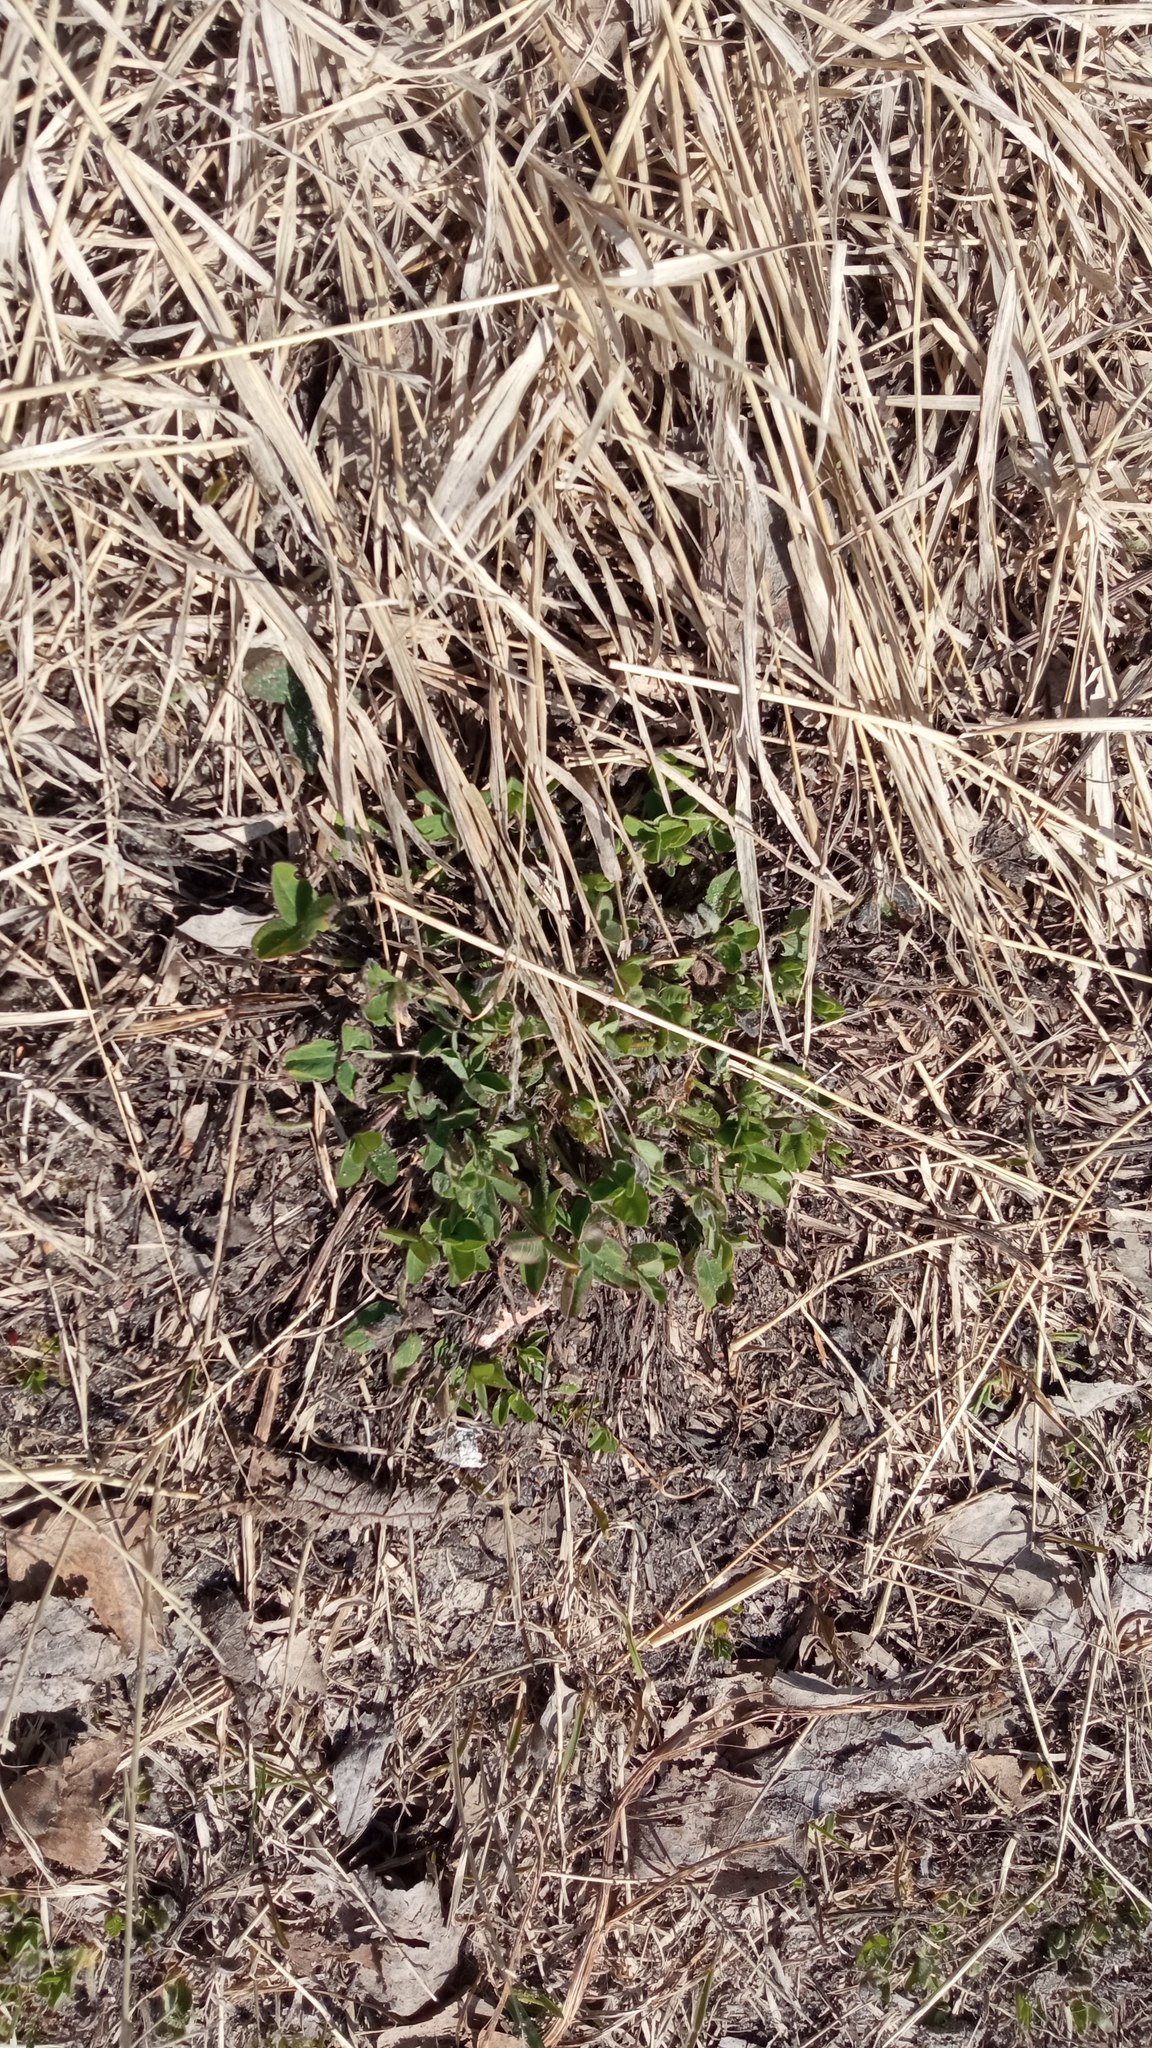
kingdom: Plantae
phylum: Tracheophyta
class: Magnoliopsida
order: Fabales
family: Fabaceae
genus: Trifolium
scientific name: Trifolium pratense
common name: Red clover
